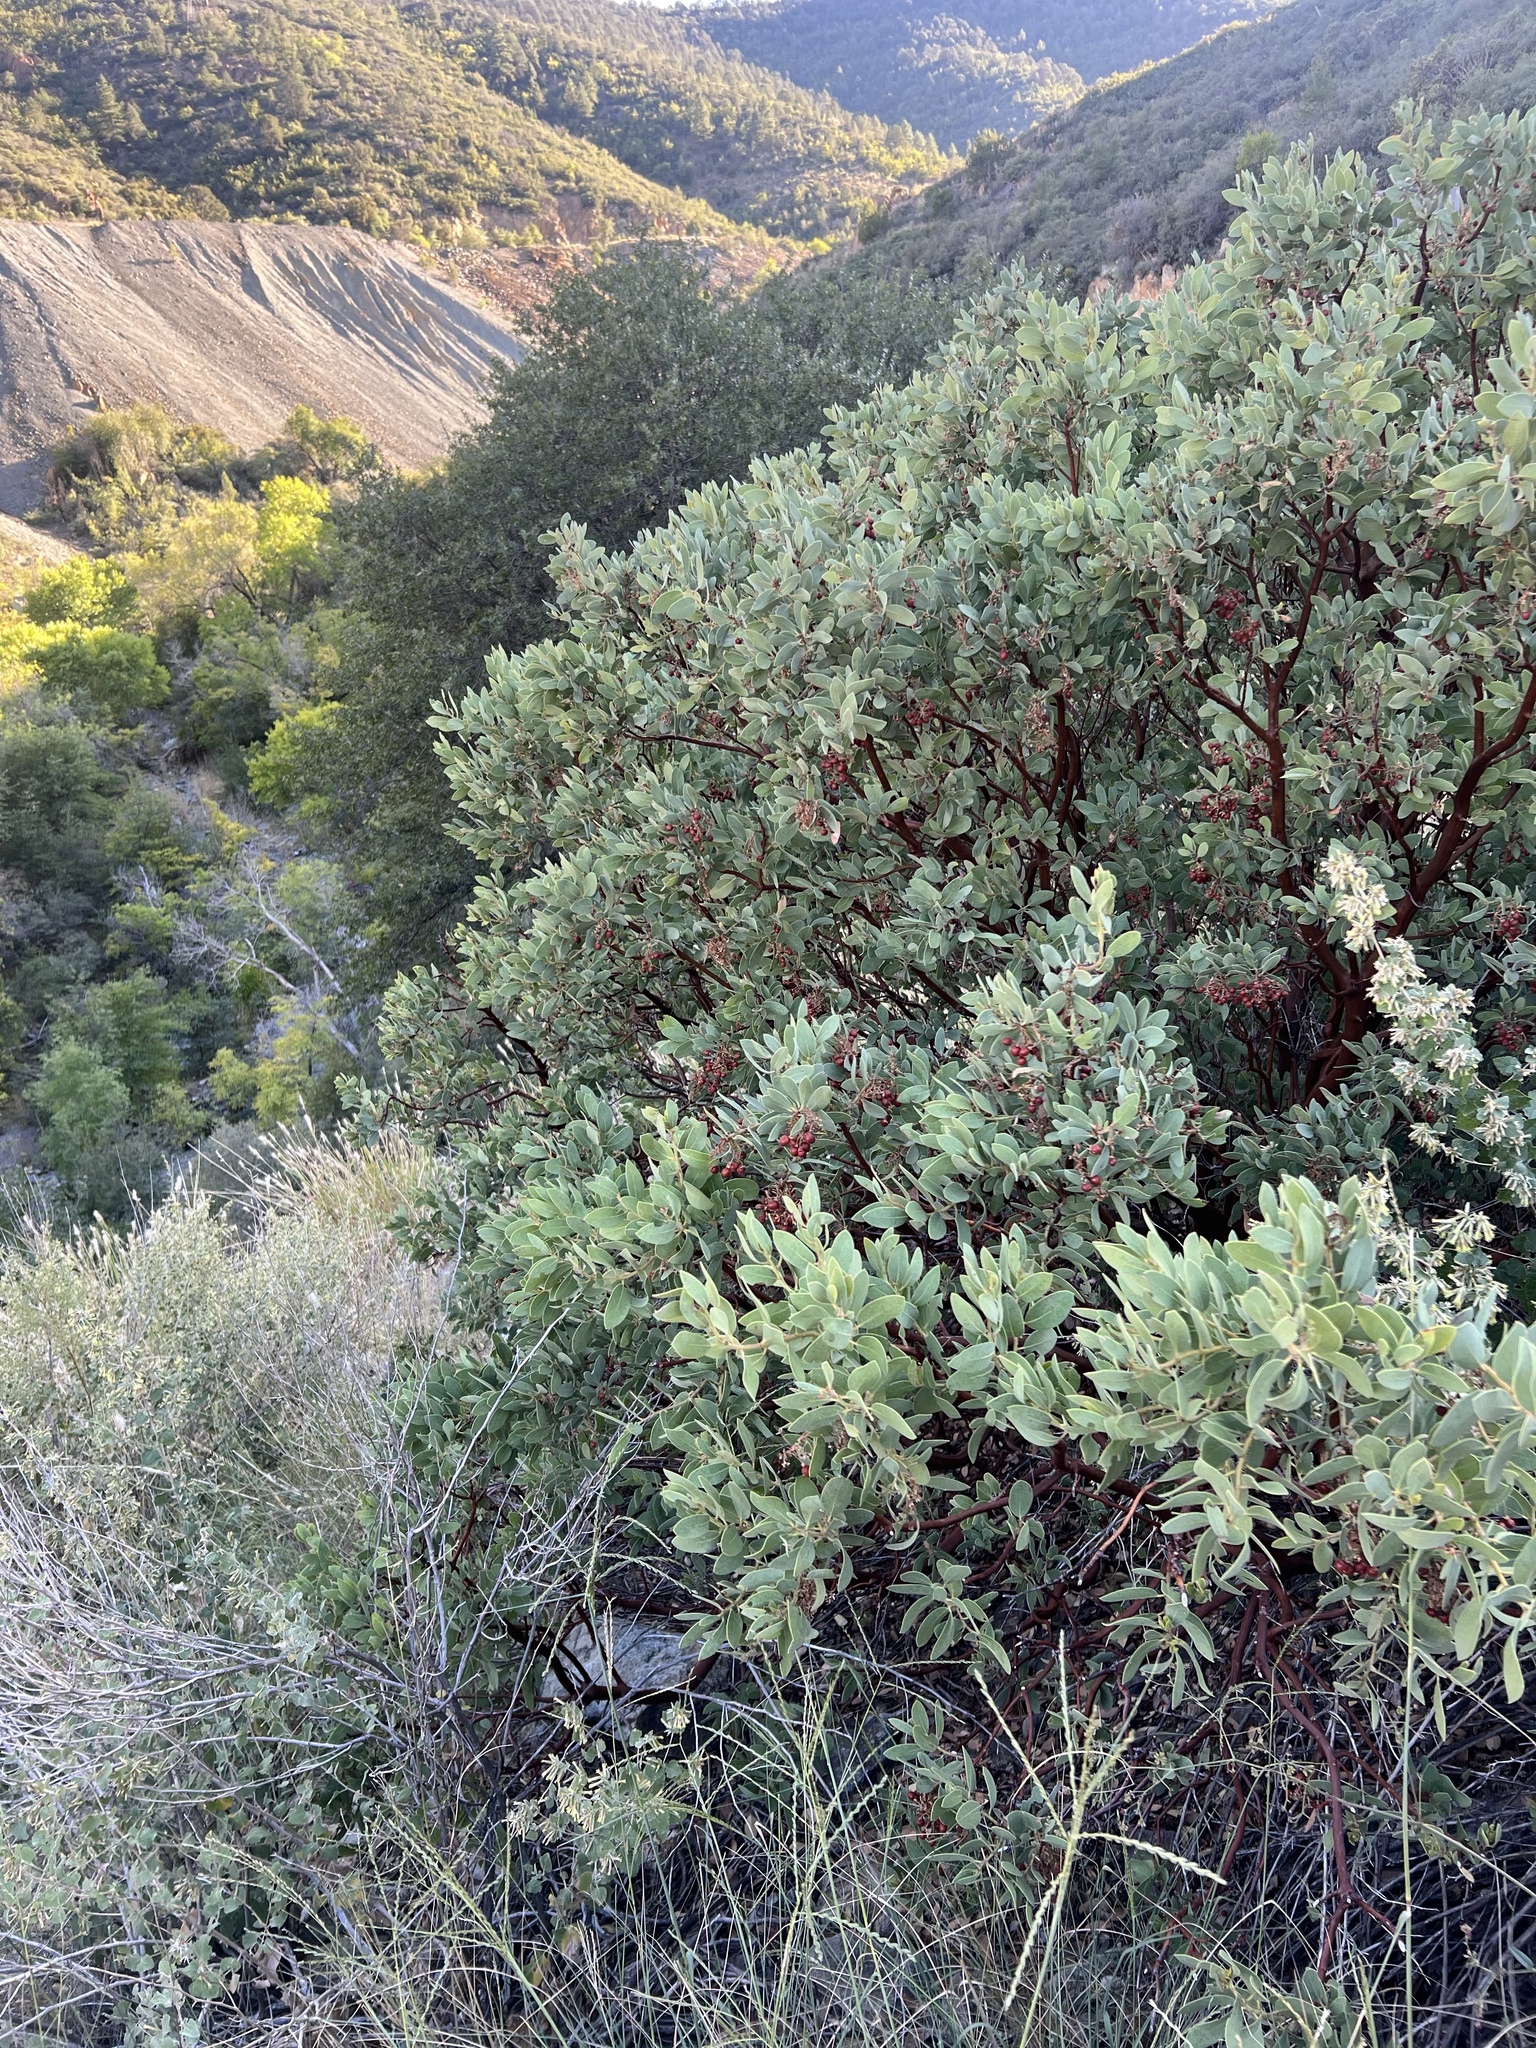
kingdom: Plantae
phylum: Tracheophyta
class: Magnoliopsida
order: Ericales
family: Ericaceae
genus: Arctostaphylos
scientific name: Arctostaphylos pringlei
